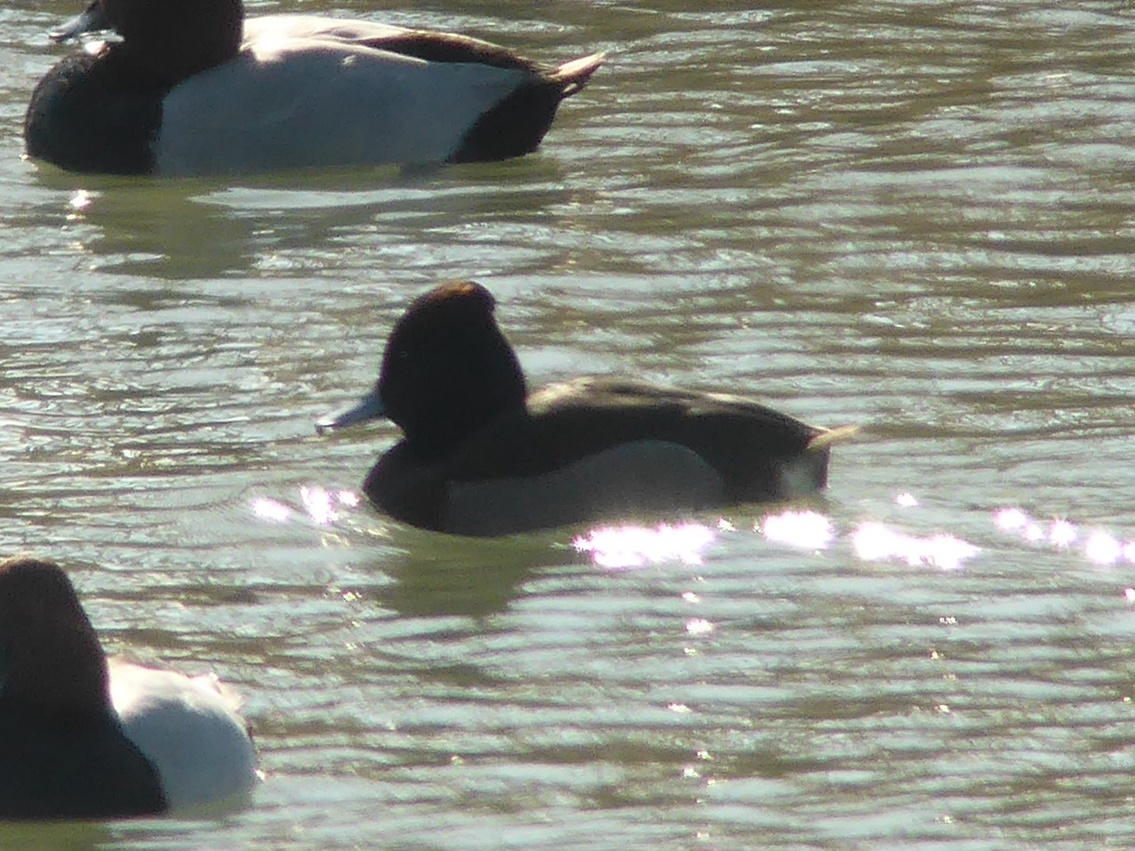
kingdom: Animalia
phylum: Chordata
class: Aves
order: Anseriformes
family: Anatidae
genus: Aythya
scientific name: Aythya
